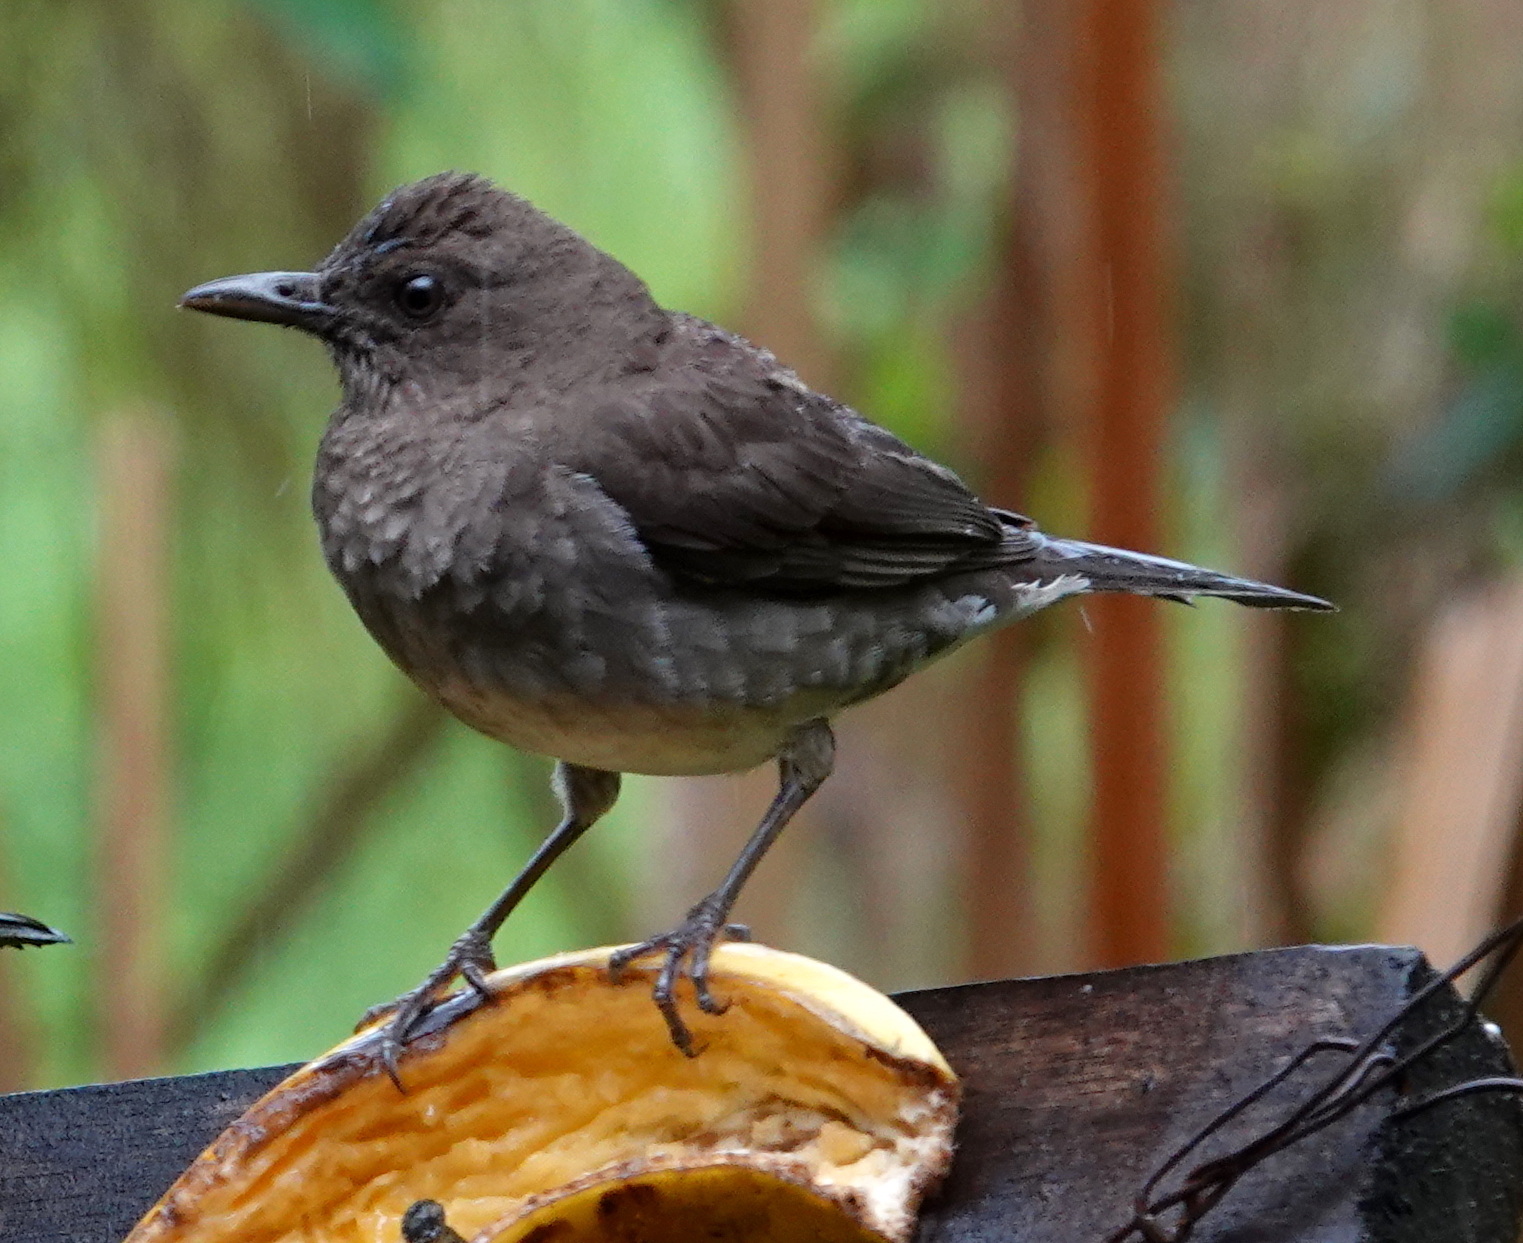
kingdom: Animalia
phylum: Chordata
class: Aves
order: Passeriformes
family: Turdidae
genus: Turdus
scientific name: Turdus ignobilis
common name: Black-billed thrush
